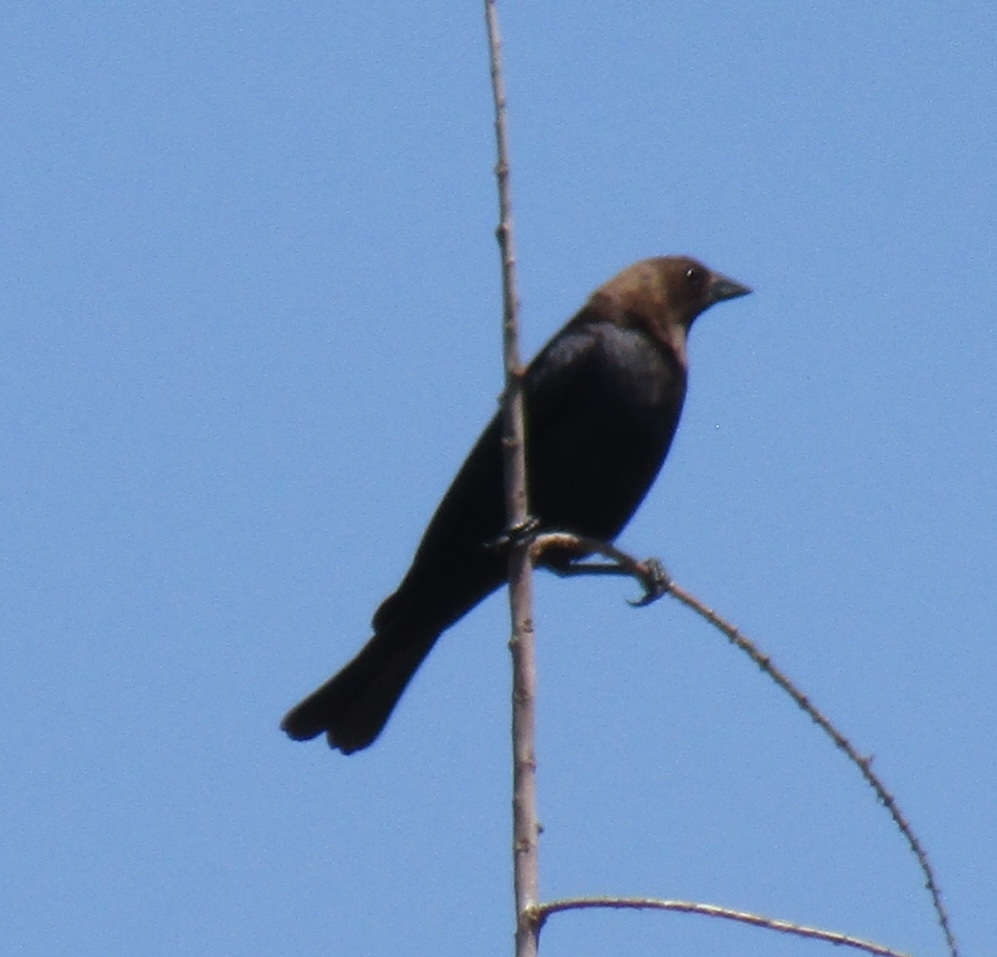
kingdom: Animalia
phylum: Chordata
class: Aves
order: Passeriformes
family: Icteridae
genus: Molothrus
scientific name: Molothrus ater
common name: Brown-headed cowbird
